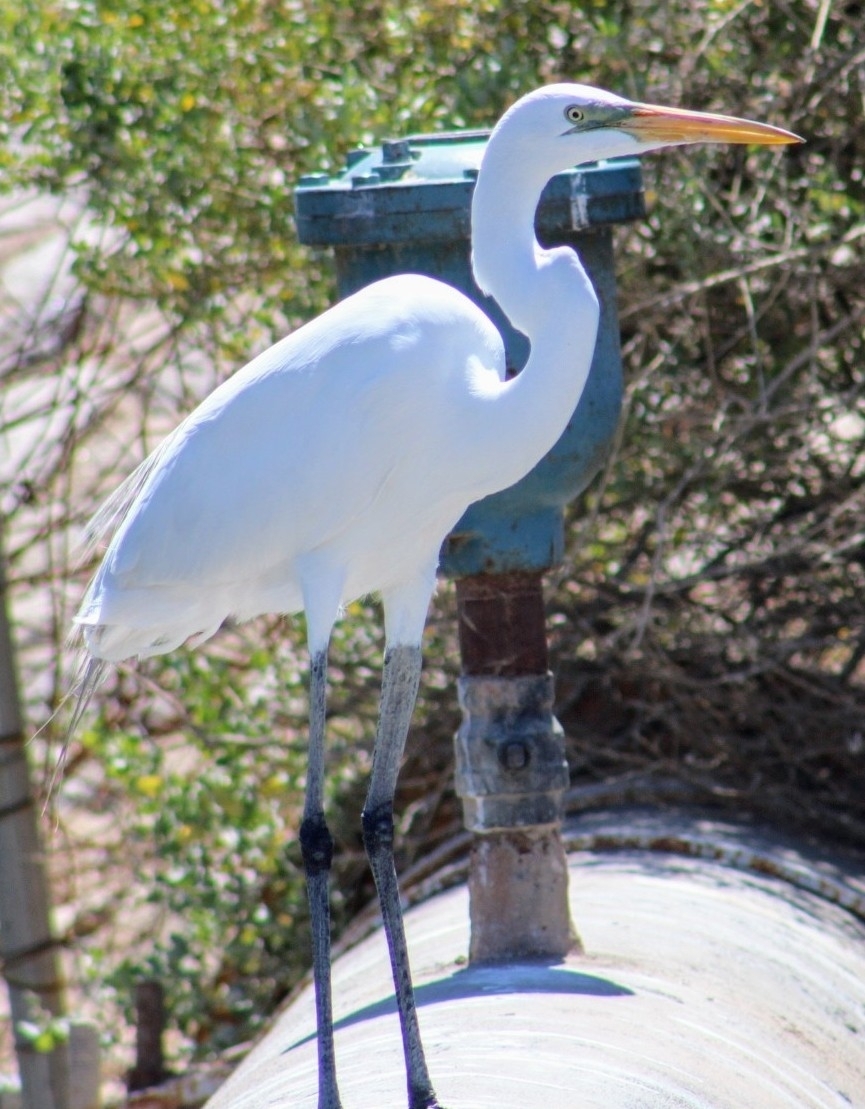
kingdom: Animalia
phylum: Chordata
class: Aves
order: Pelecaniformes
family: Ardeidae
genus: Ardea
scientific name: Ardea alba
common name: Great egret
